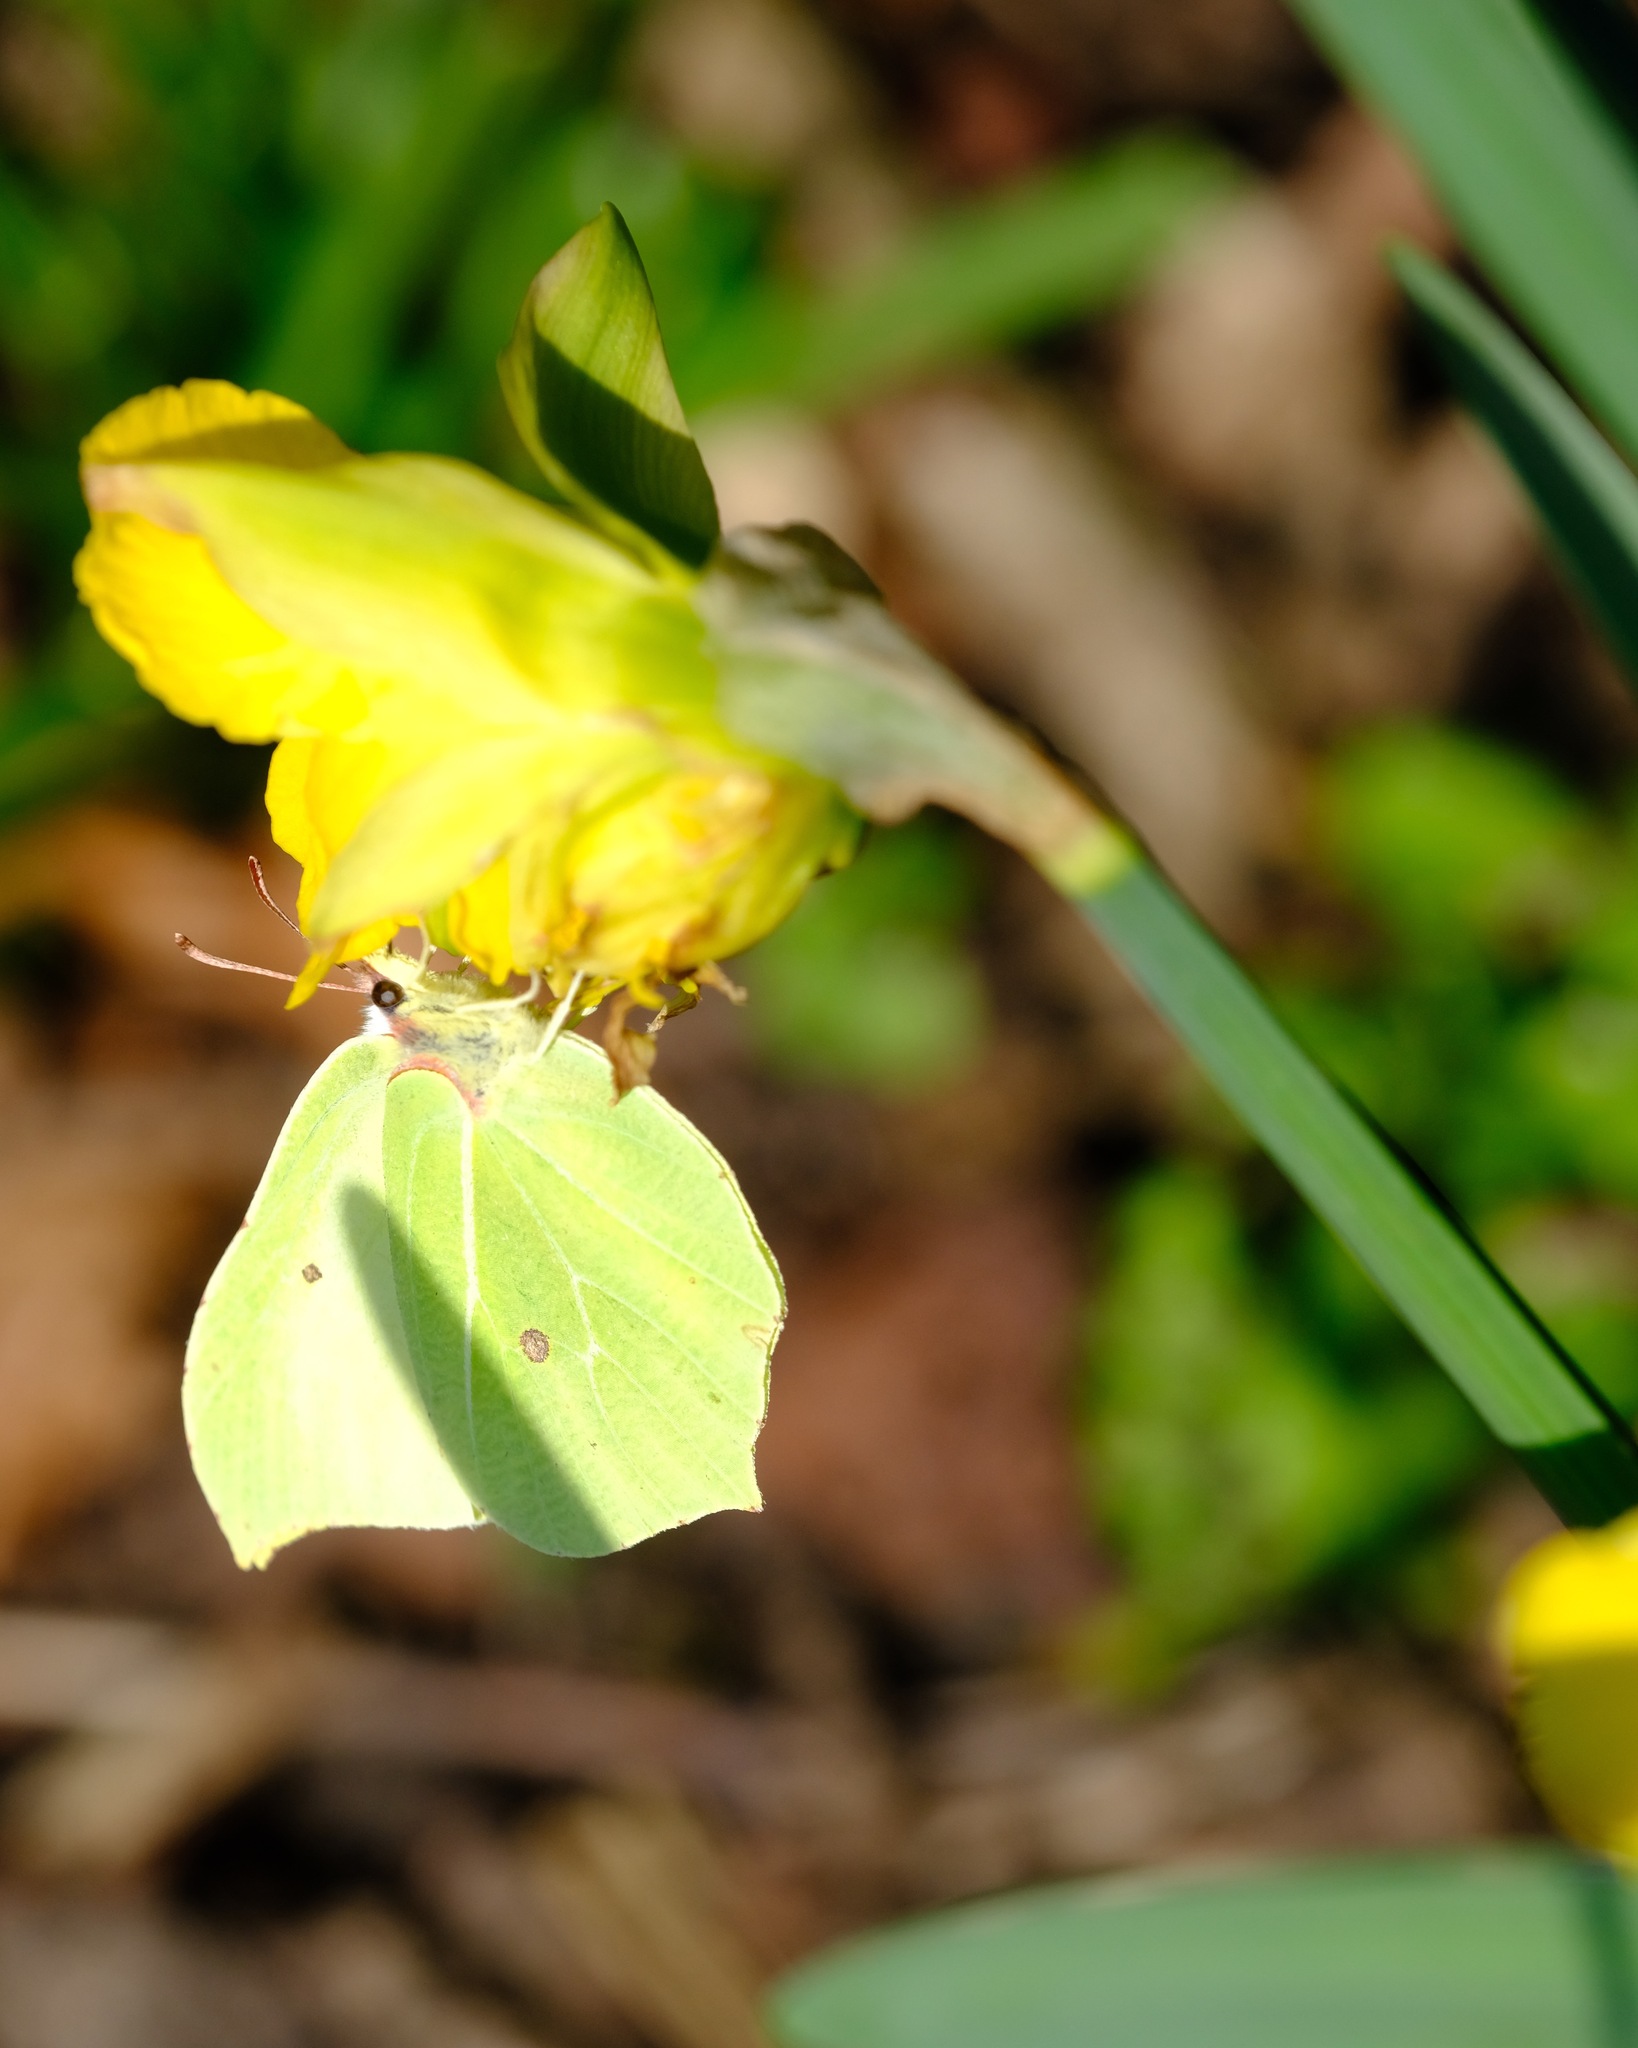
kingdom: Animalia
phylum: Arthropoda
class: Insecta
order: Lepidoptera
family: Pieridae
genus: Gonepteryx
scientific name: Gonepteryx rhamni
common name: Brimstone
